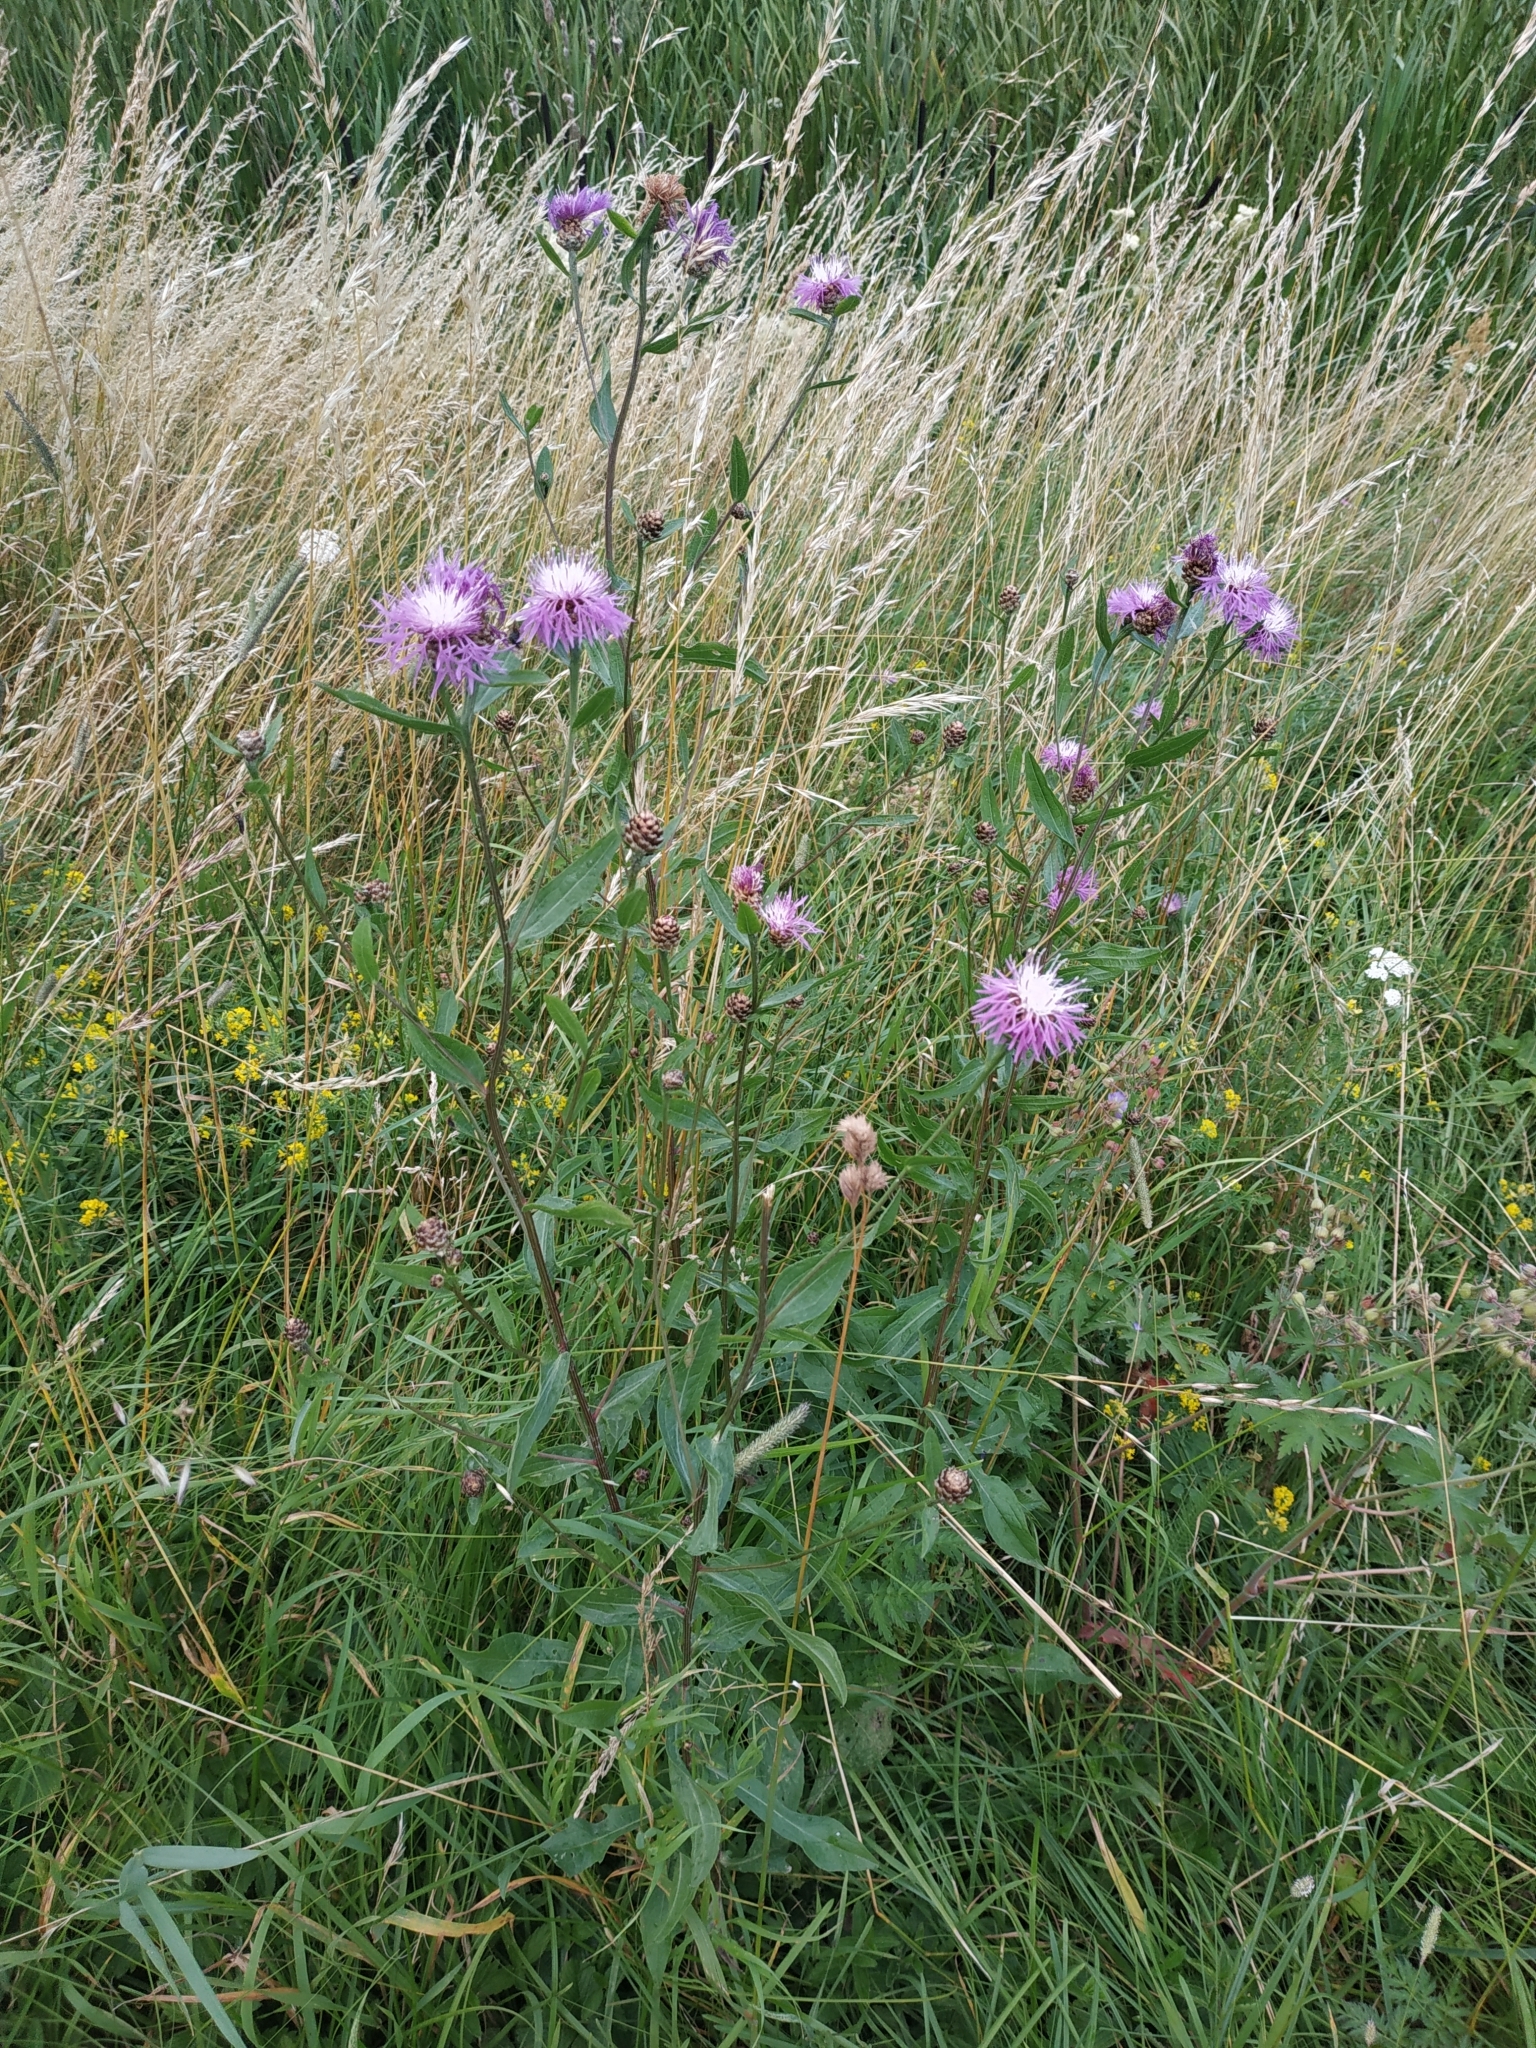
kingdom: Plantae
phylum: Tracheophyta
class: Magnoliopsida
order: Asterales
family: Asteraceae
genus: Centaurea
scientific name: Centaurea jacea
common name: Brown knapweed
